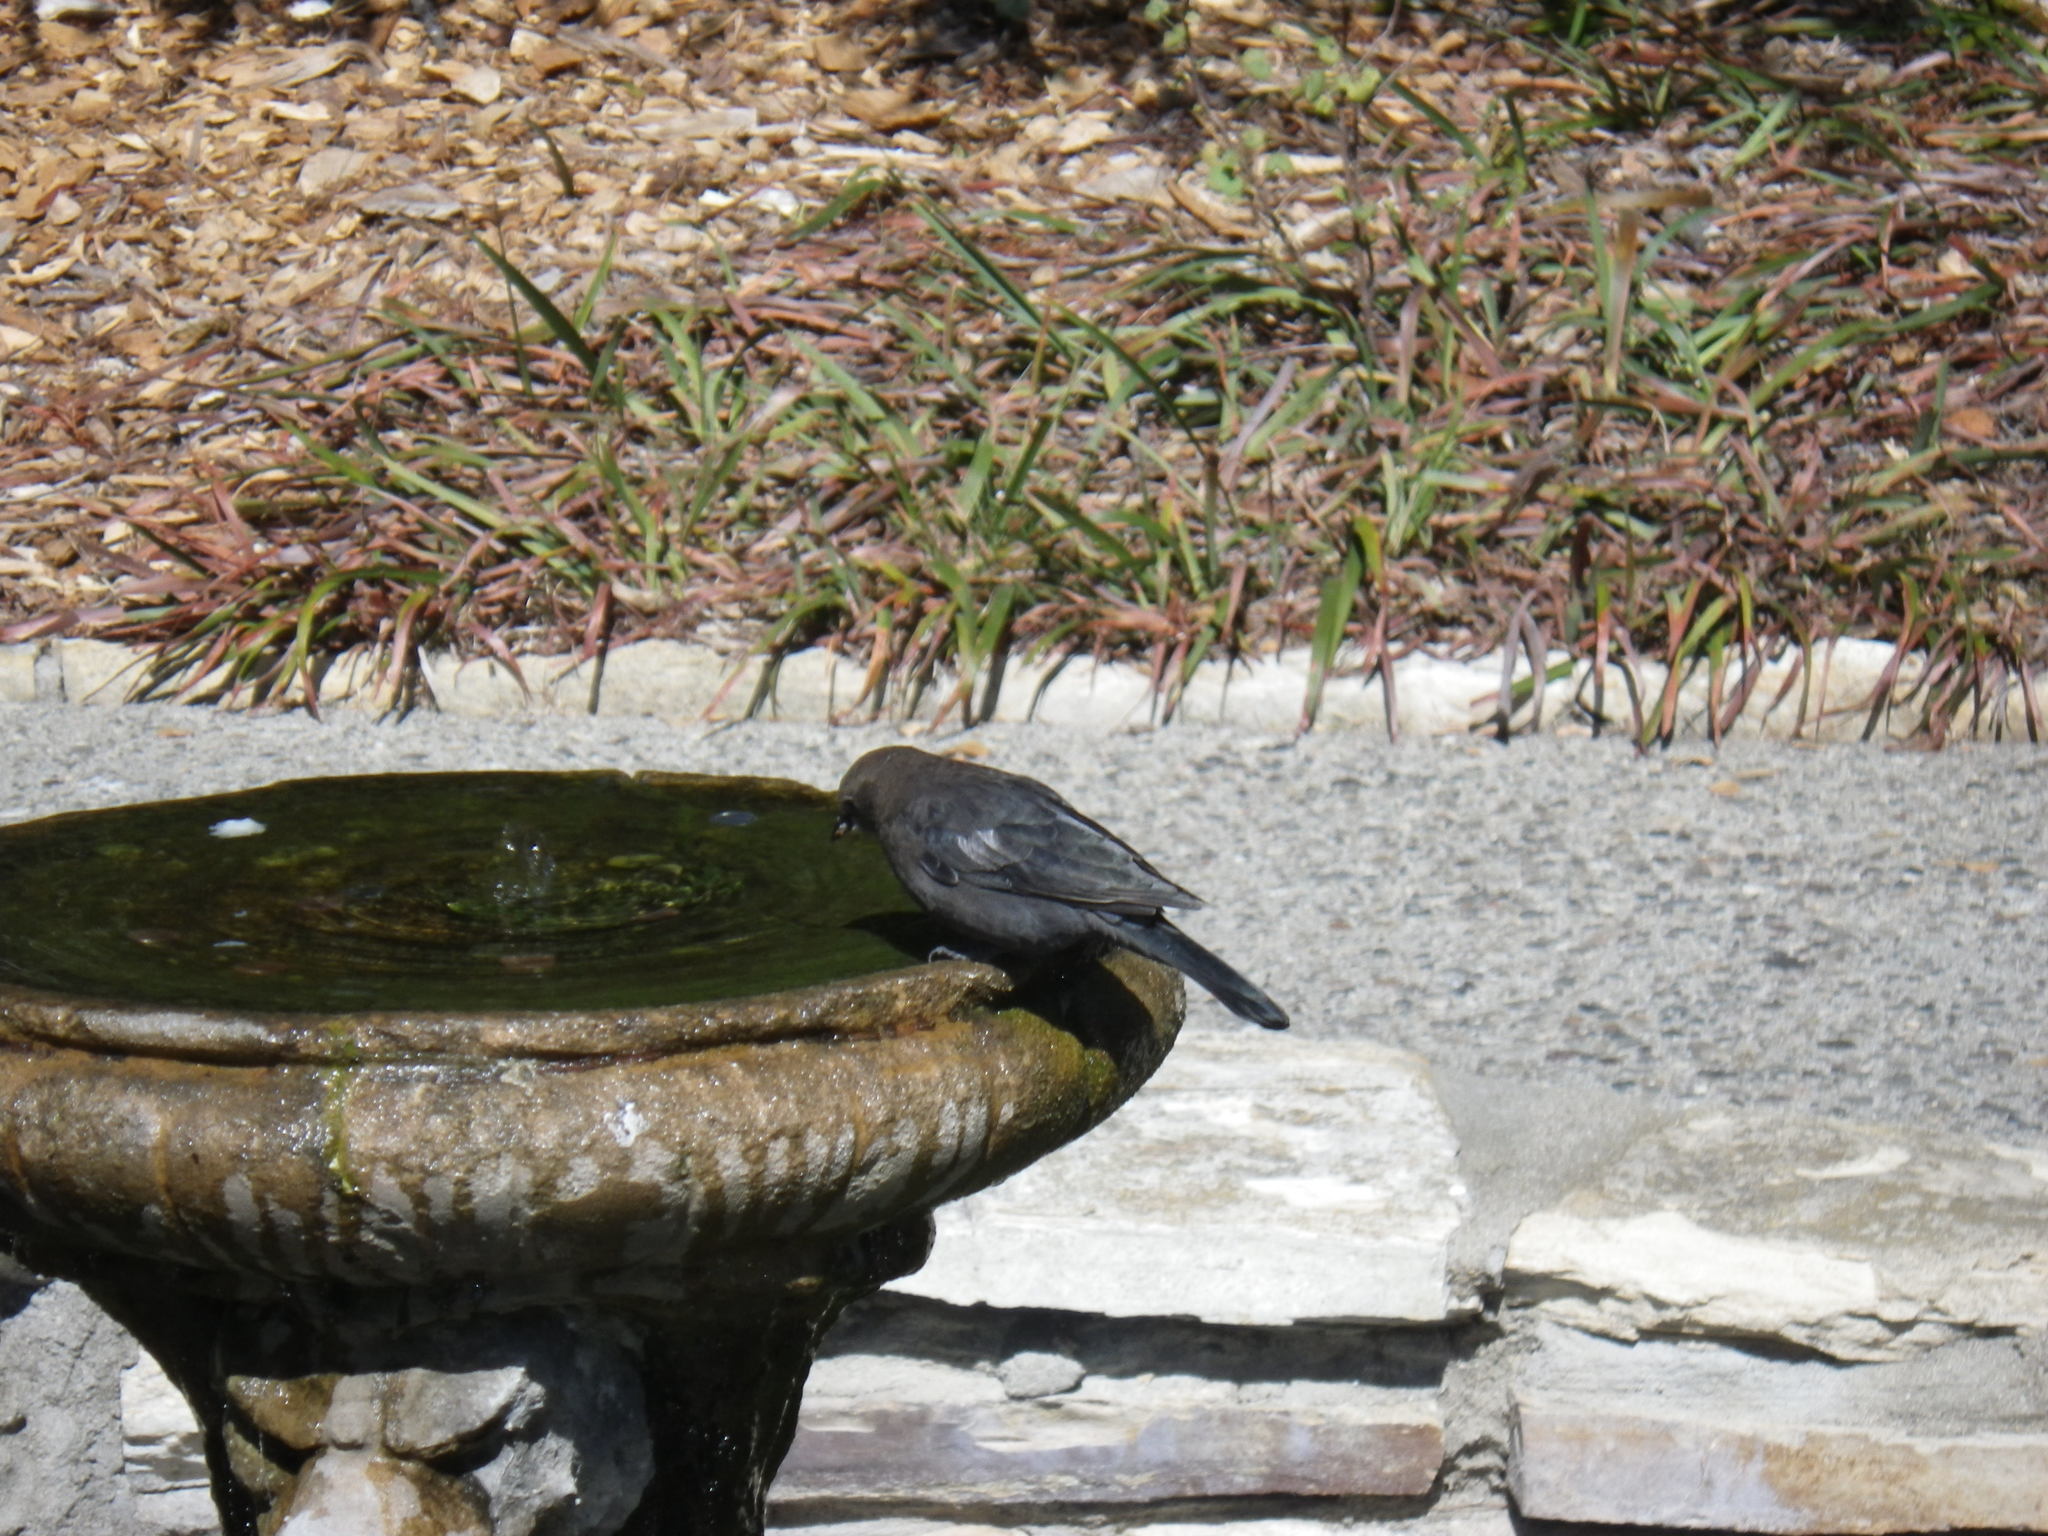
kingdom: Animalia
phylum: Chordata
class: Aves
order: Passeriformes
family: Icteridae
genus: Euphagus
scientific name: Euphagus cyanocephalus
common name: Brewer's blackbird
